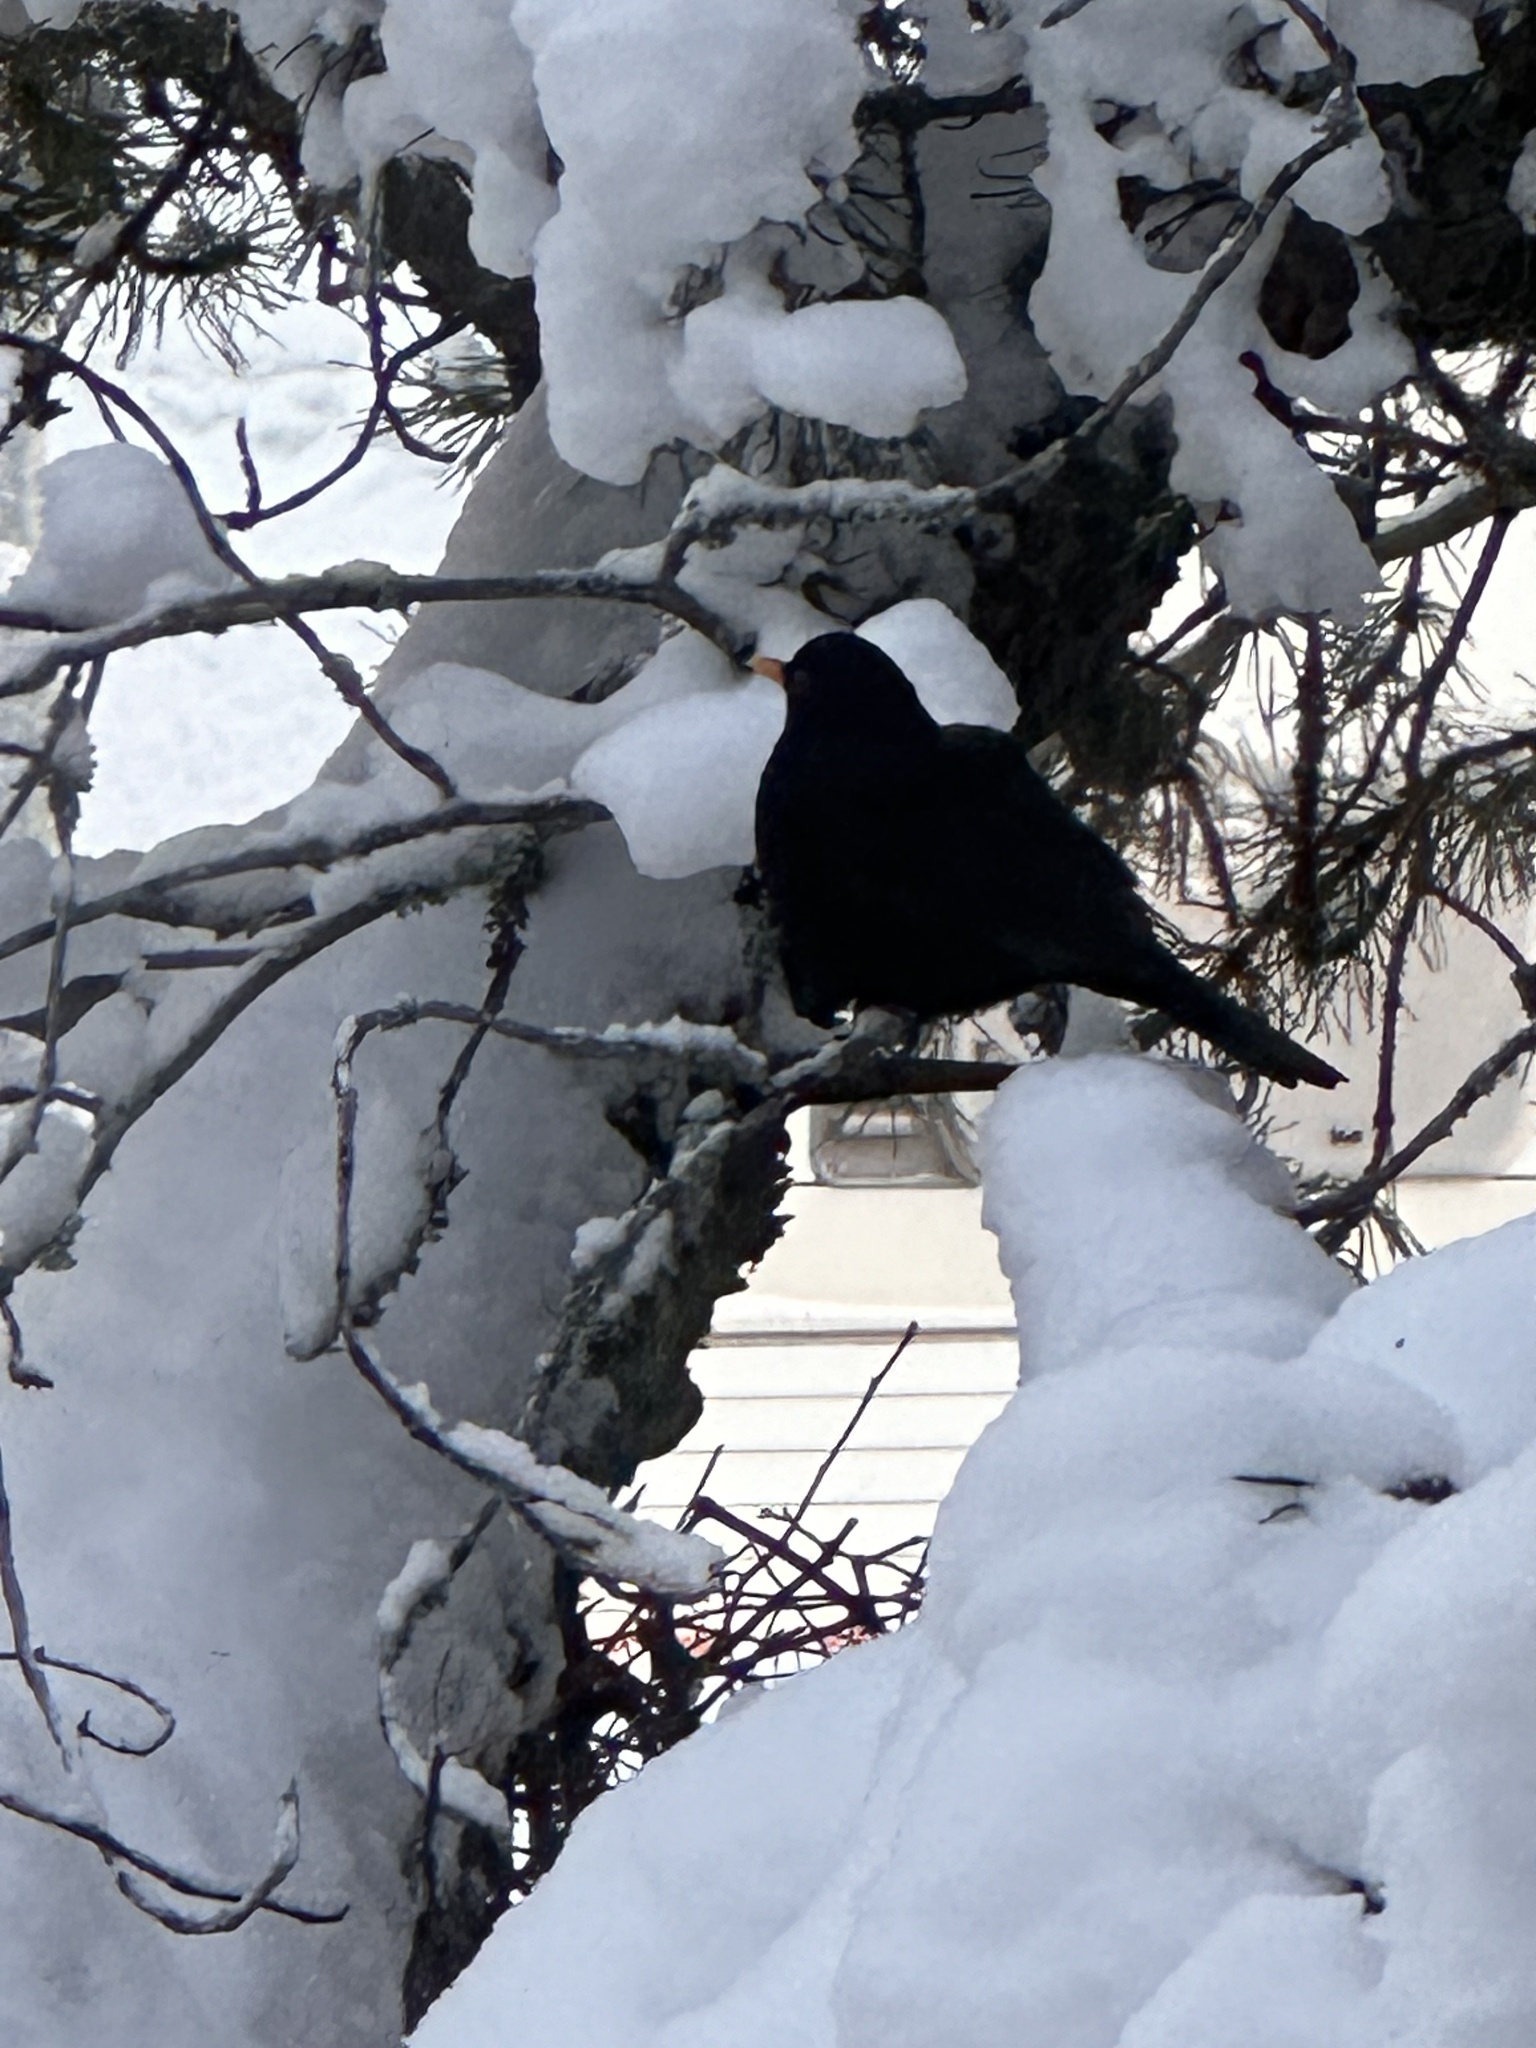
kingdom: Animalia
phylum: Chordata
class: Aves
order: Passeriformes
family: Turdidae
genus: Turdus
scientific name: Turdus merula
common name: Common blackbird
